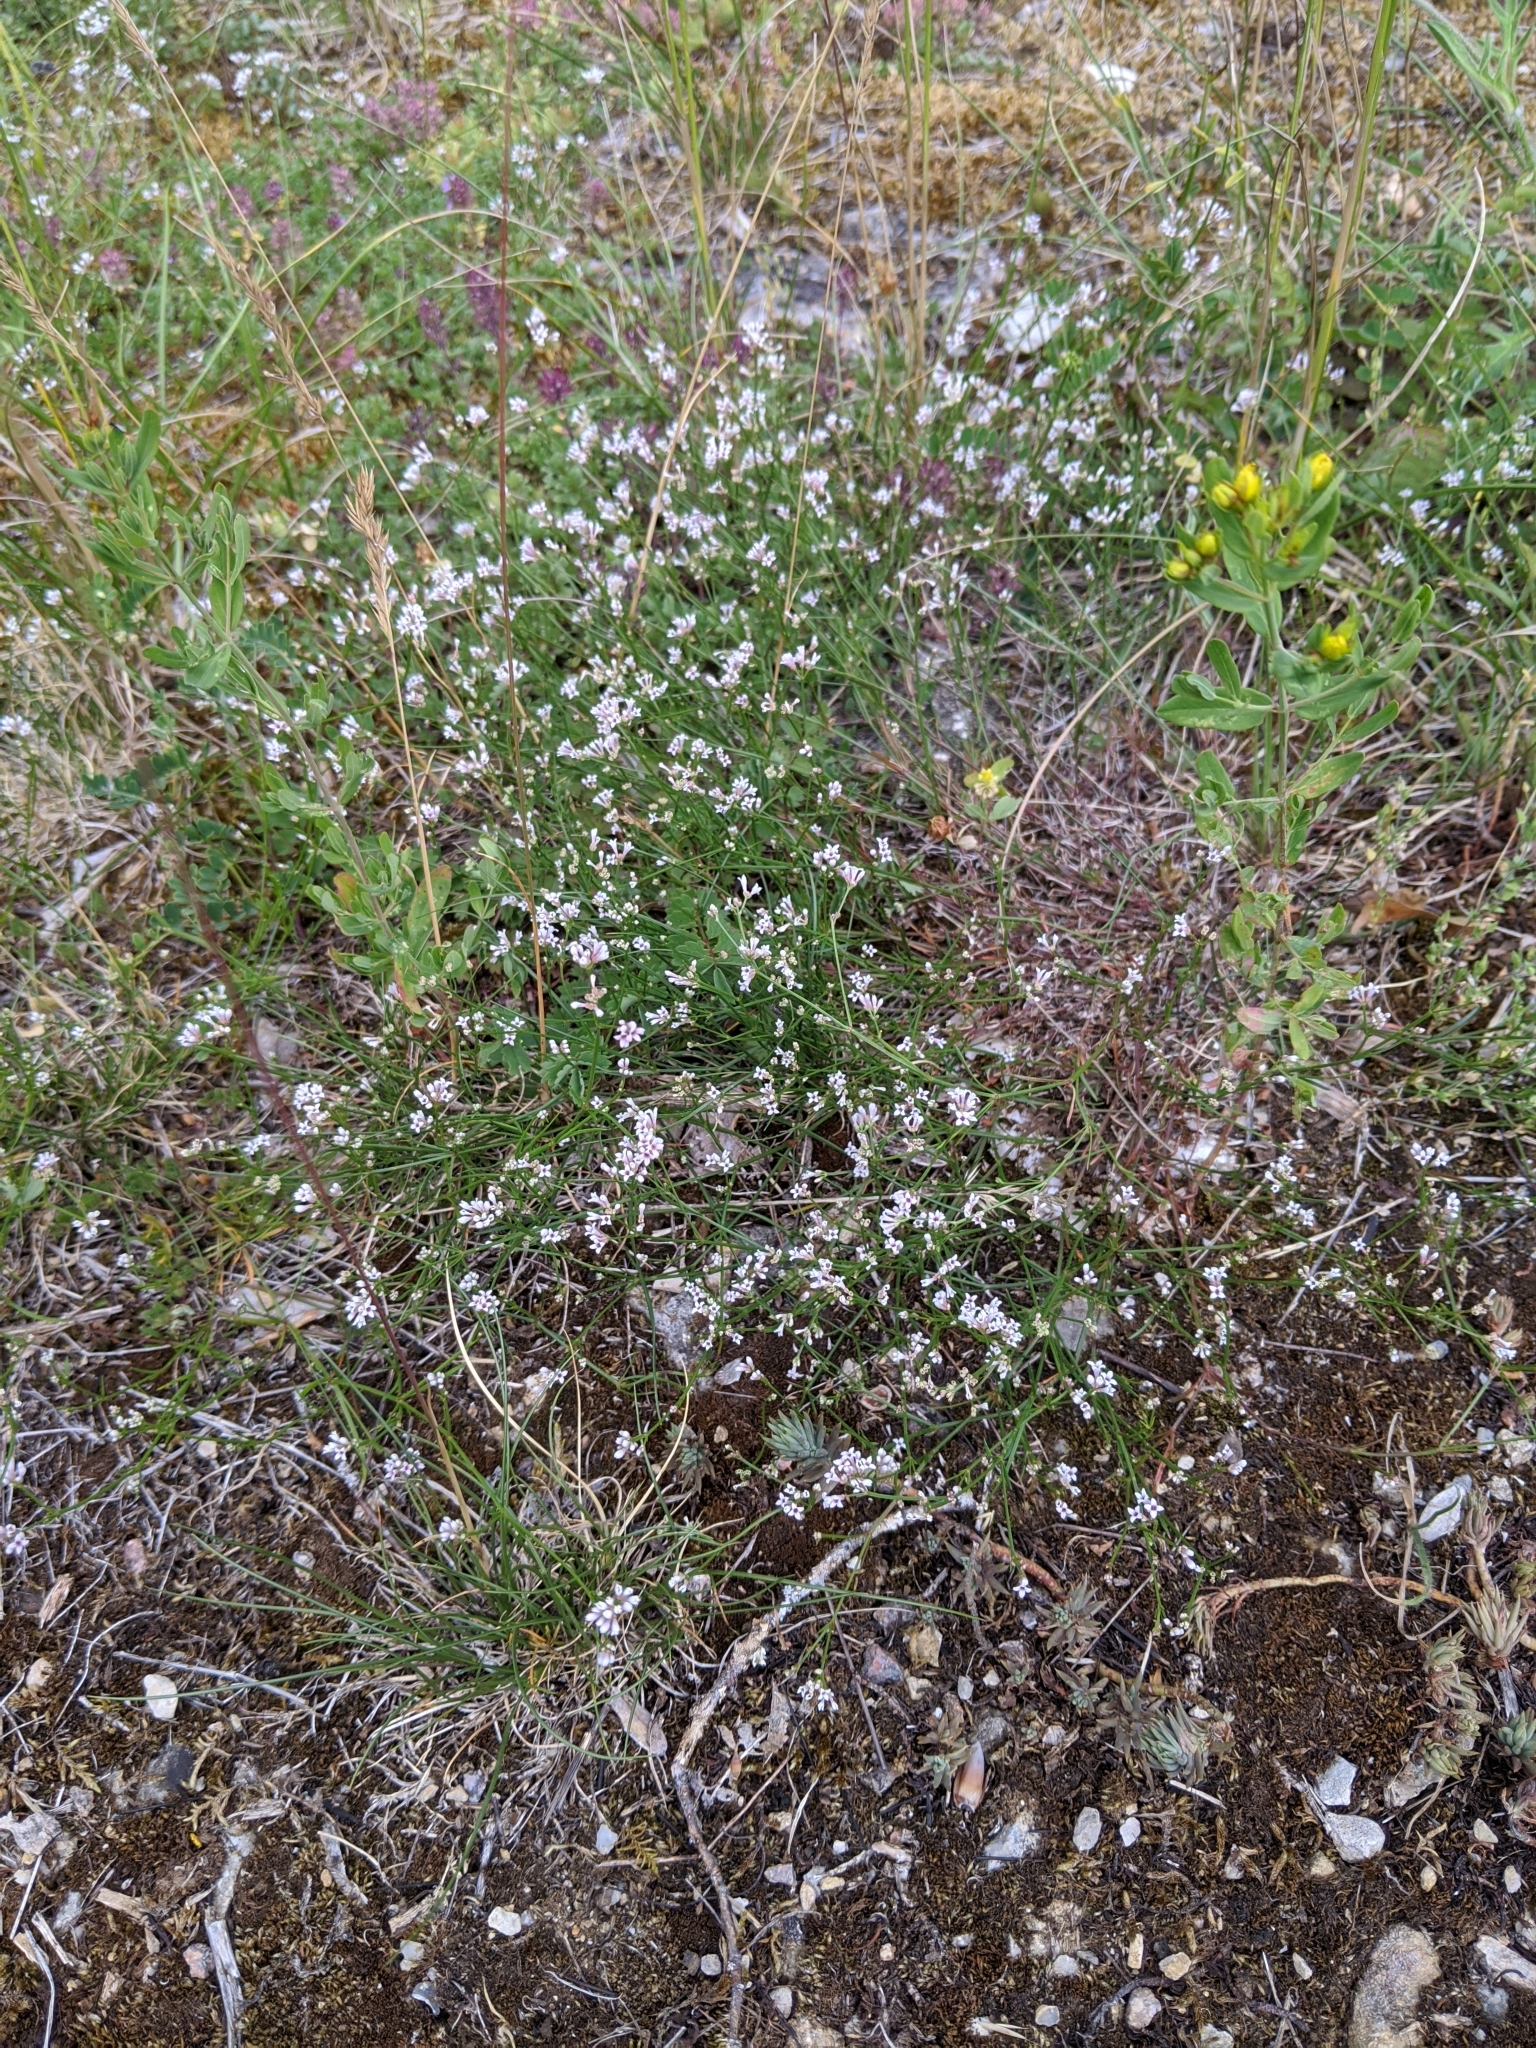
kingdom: Plantae
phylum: Tracheophyta
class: Magnoliopsida
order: Gentianales
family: Rubiaceae
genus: Cynanchica
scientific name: Cynanchica pyrenaica
